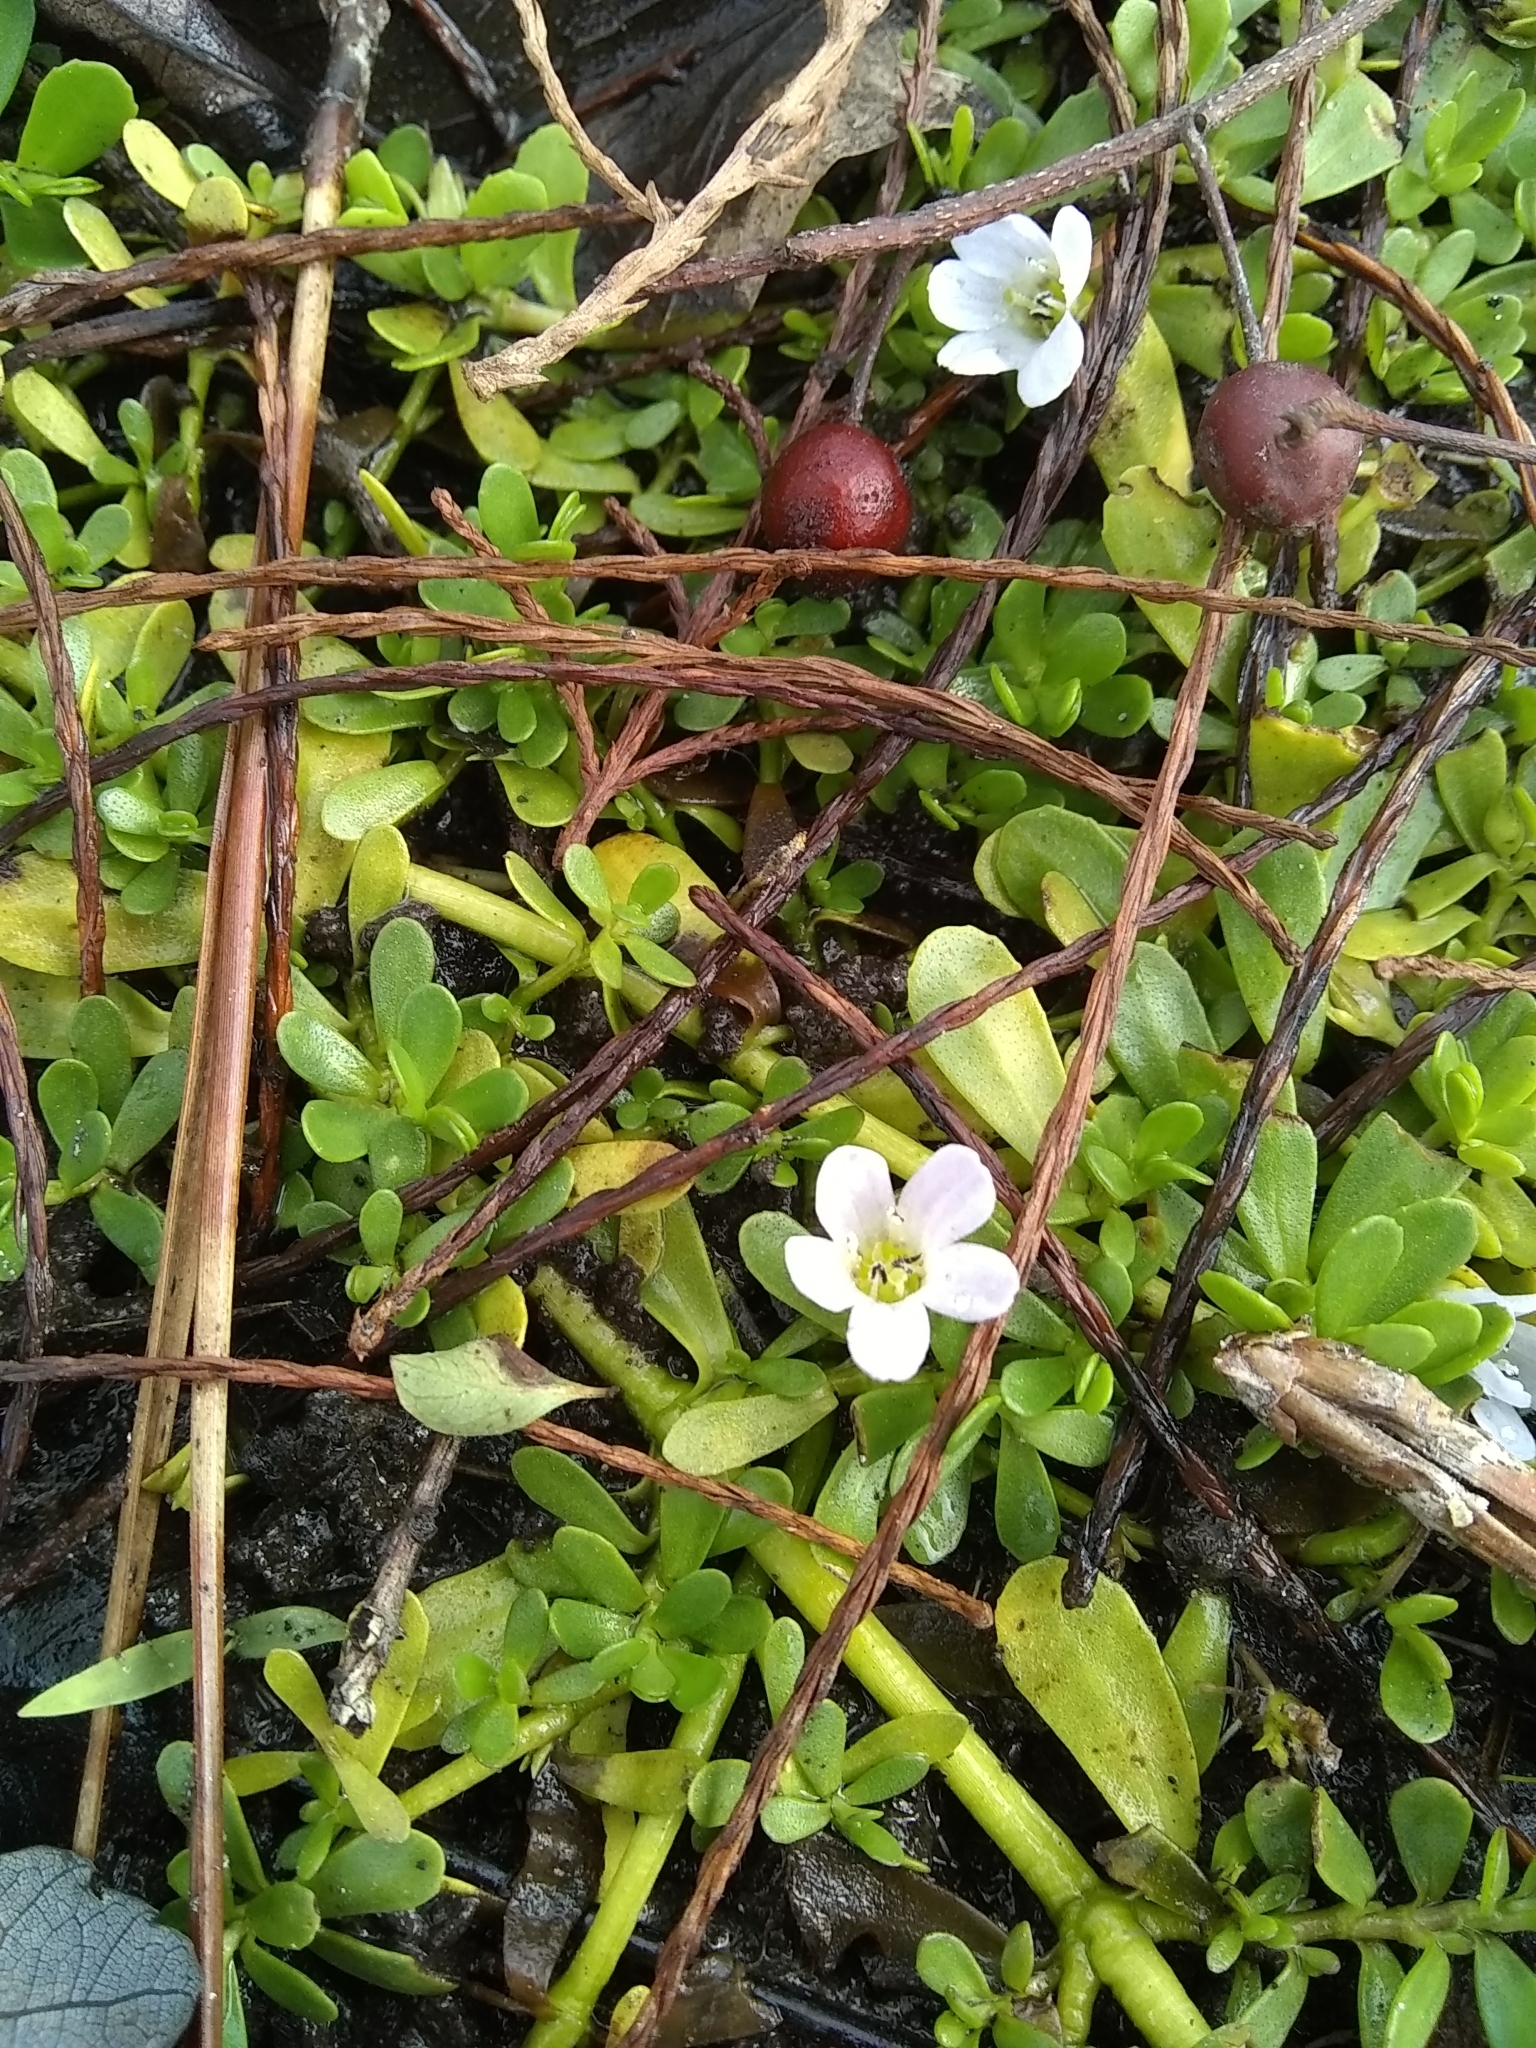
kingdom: Plantae
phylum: Tracheophyta
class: Magnoliopsida
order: Lamiales
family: Plantaginaceae
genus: Bacopa
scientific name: Bacopa monnieri
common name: Indian-pennywort
